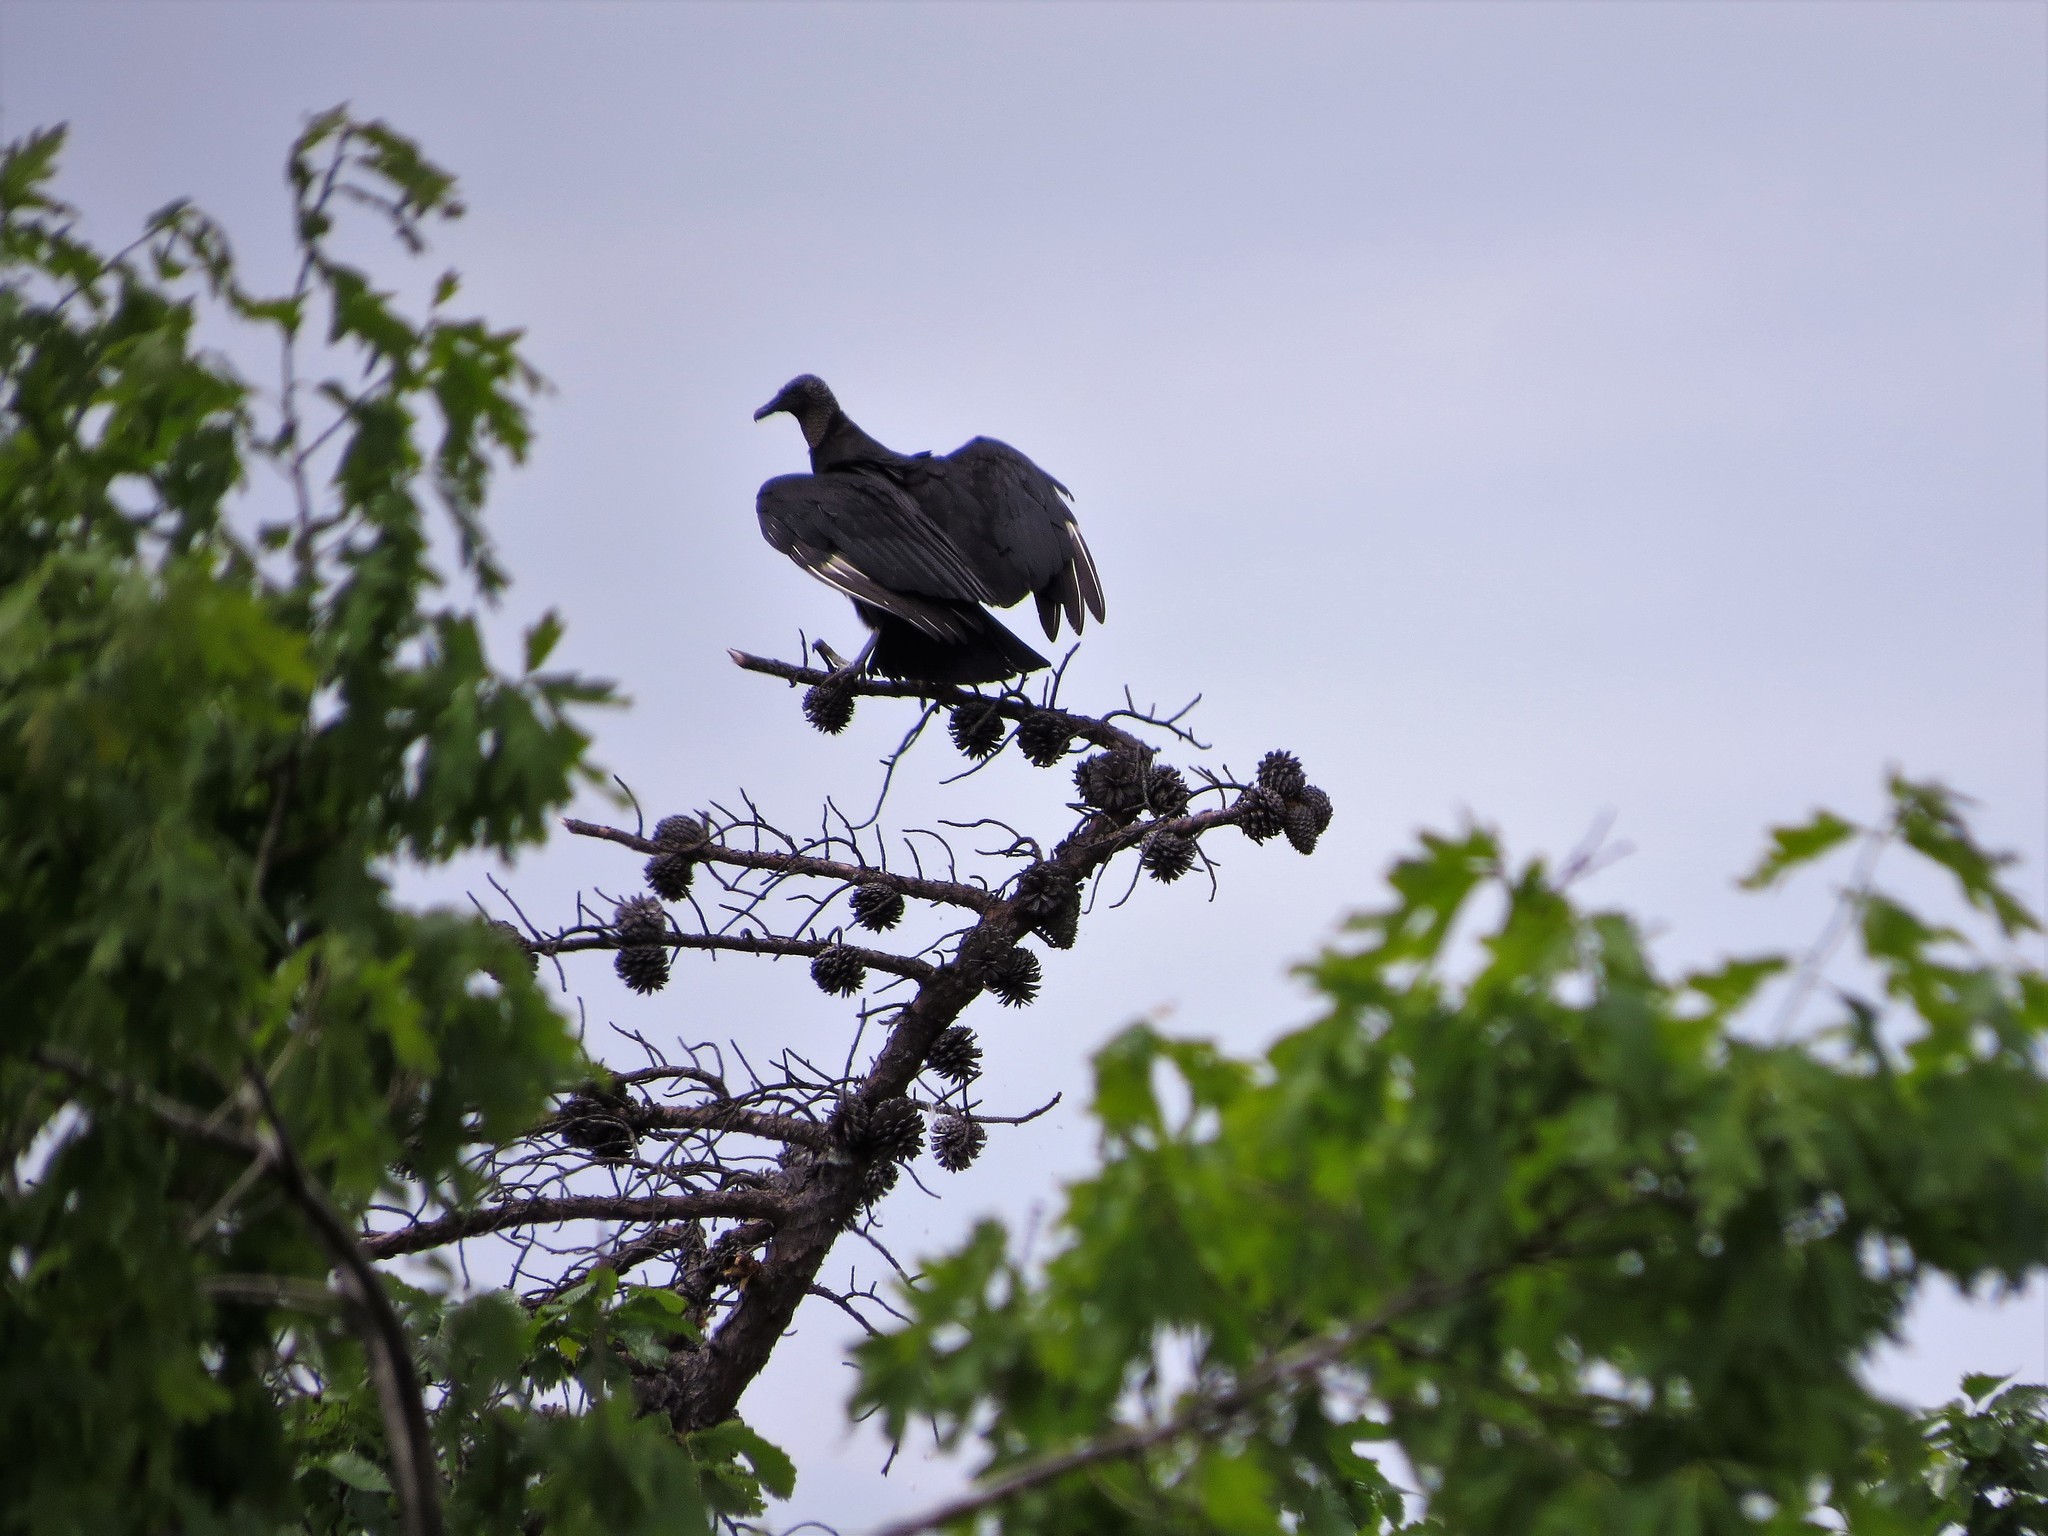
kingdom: Animalia
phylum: Chordata
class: Aves
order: Accipitriformes
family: Cathartidae
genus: Coragyps
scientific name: Coragyps atratus
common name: Black vulture
